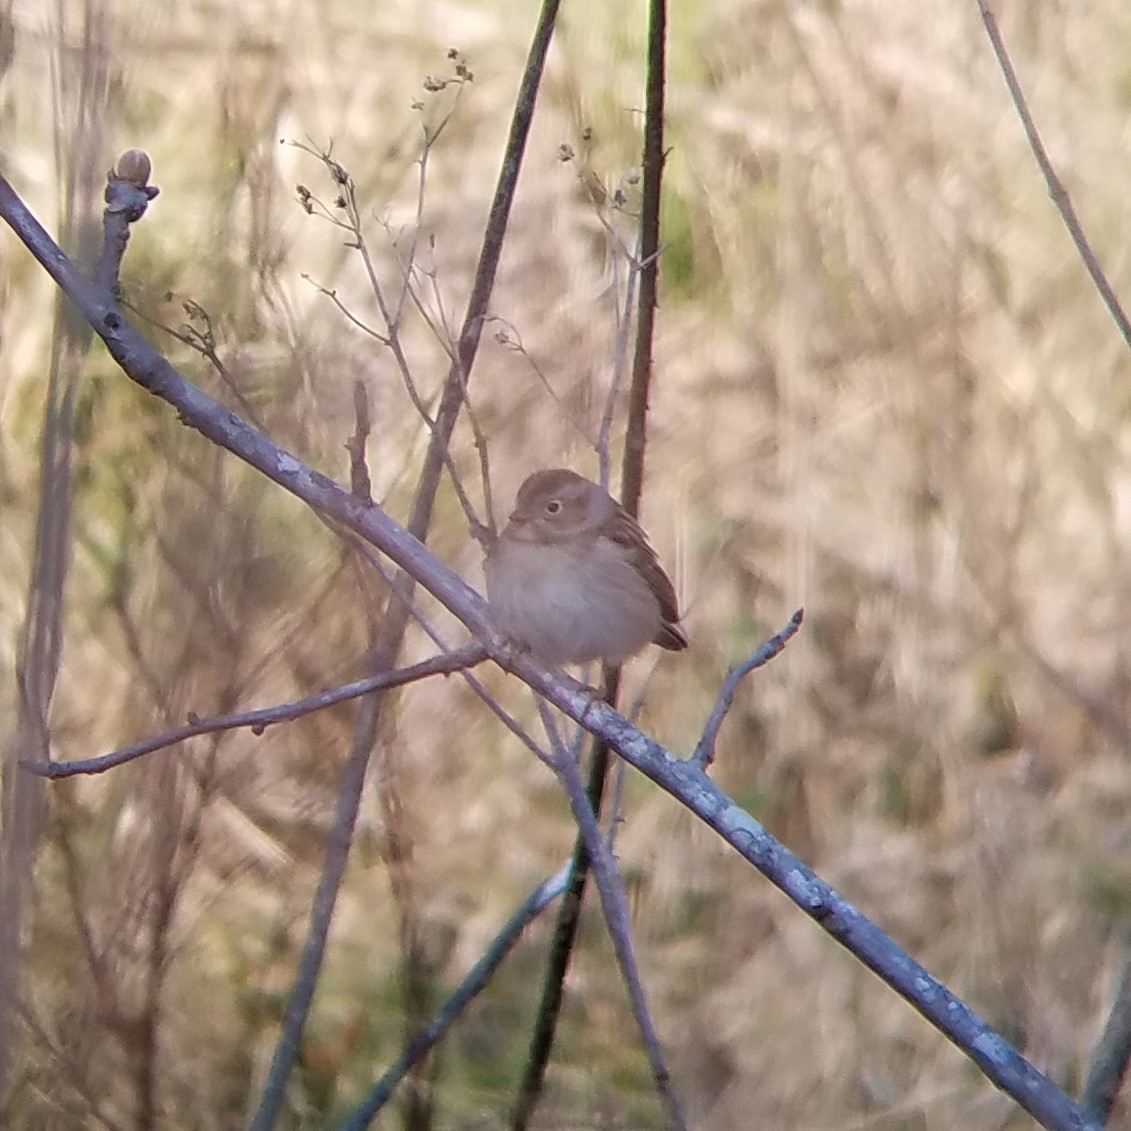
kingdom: Animalia
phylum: Chordata
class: Aves
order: Passeriformes
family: Passerellidae
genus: Spizella
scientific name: Spizella pusilla
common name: Field sparrow
